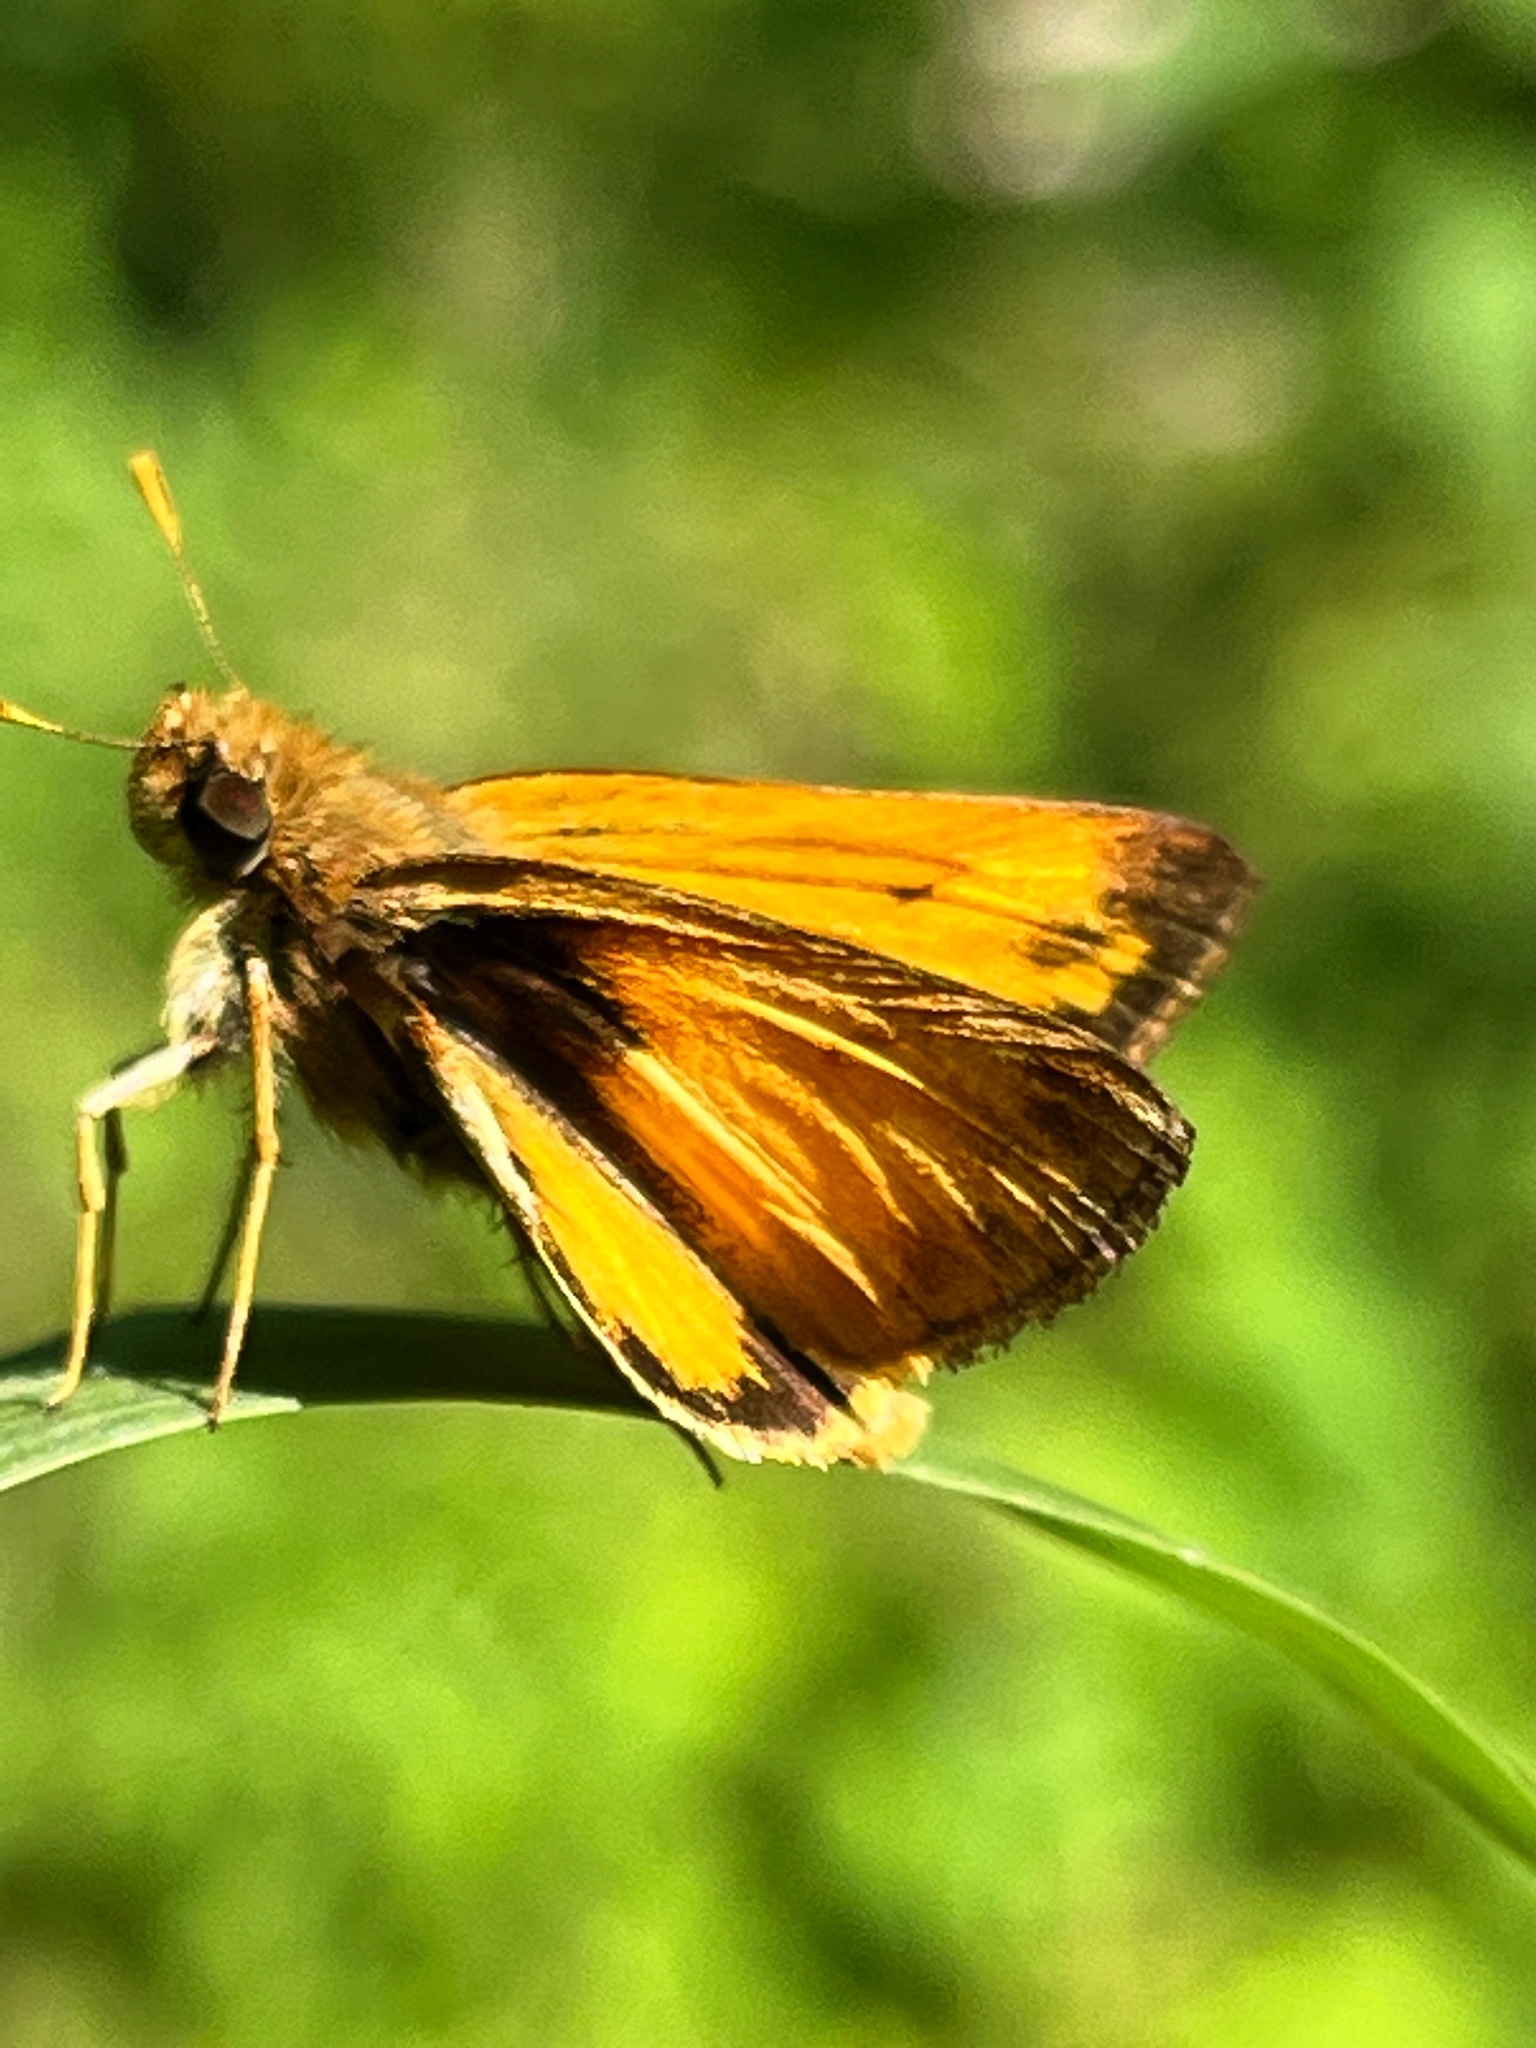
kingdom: Animalia
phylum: Arthropoda
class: Insecta
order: Lepidoptera
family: Hesperiidae
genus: Lon
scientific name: Lon zabulon
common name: Zabulon skipper
